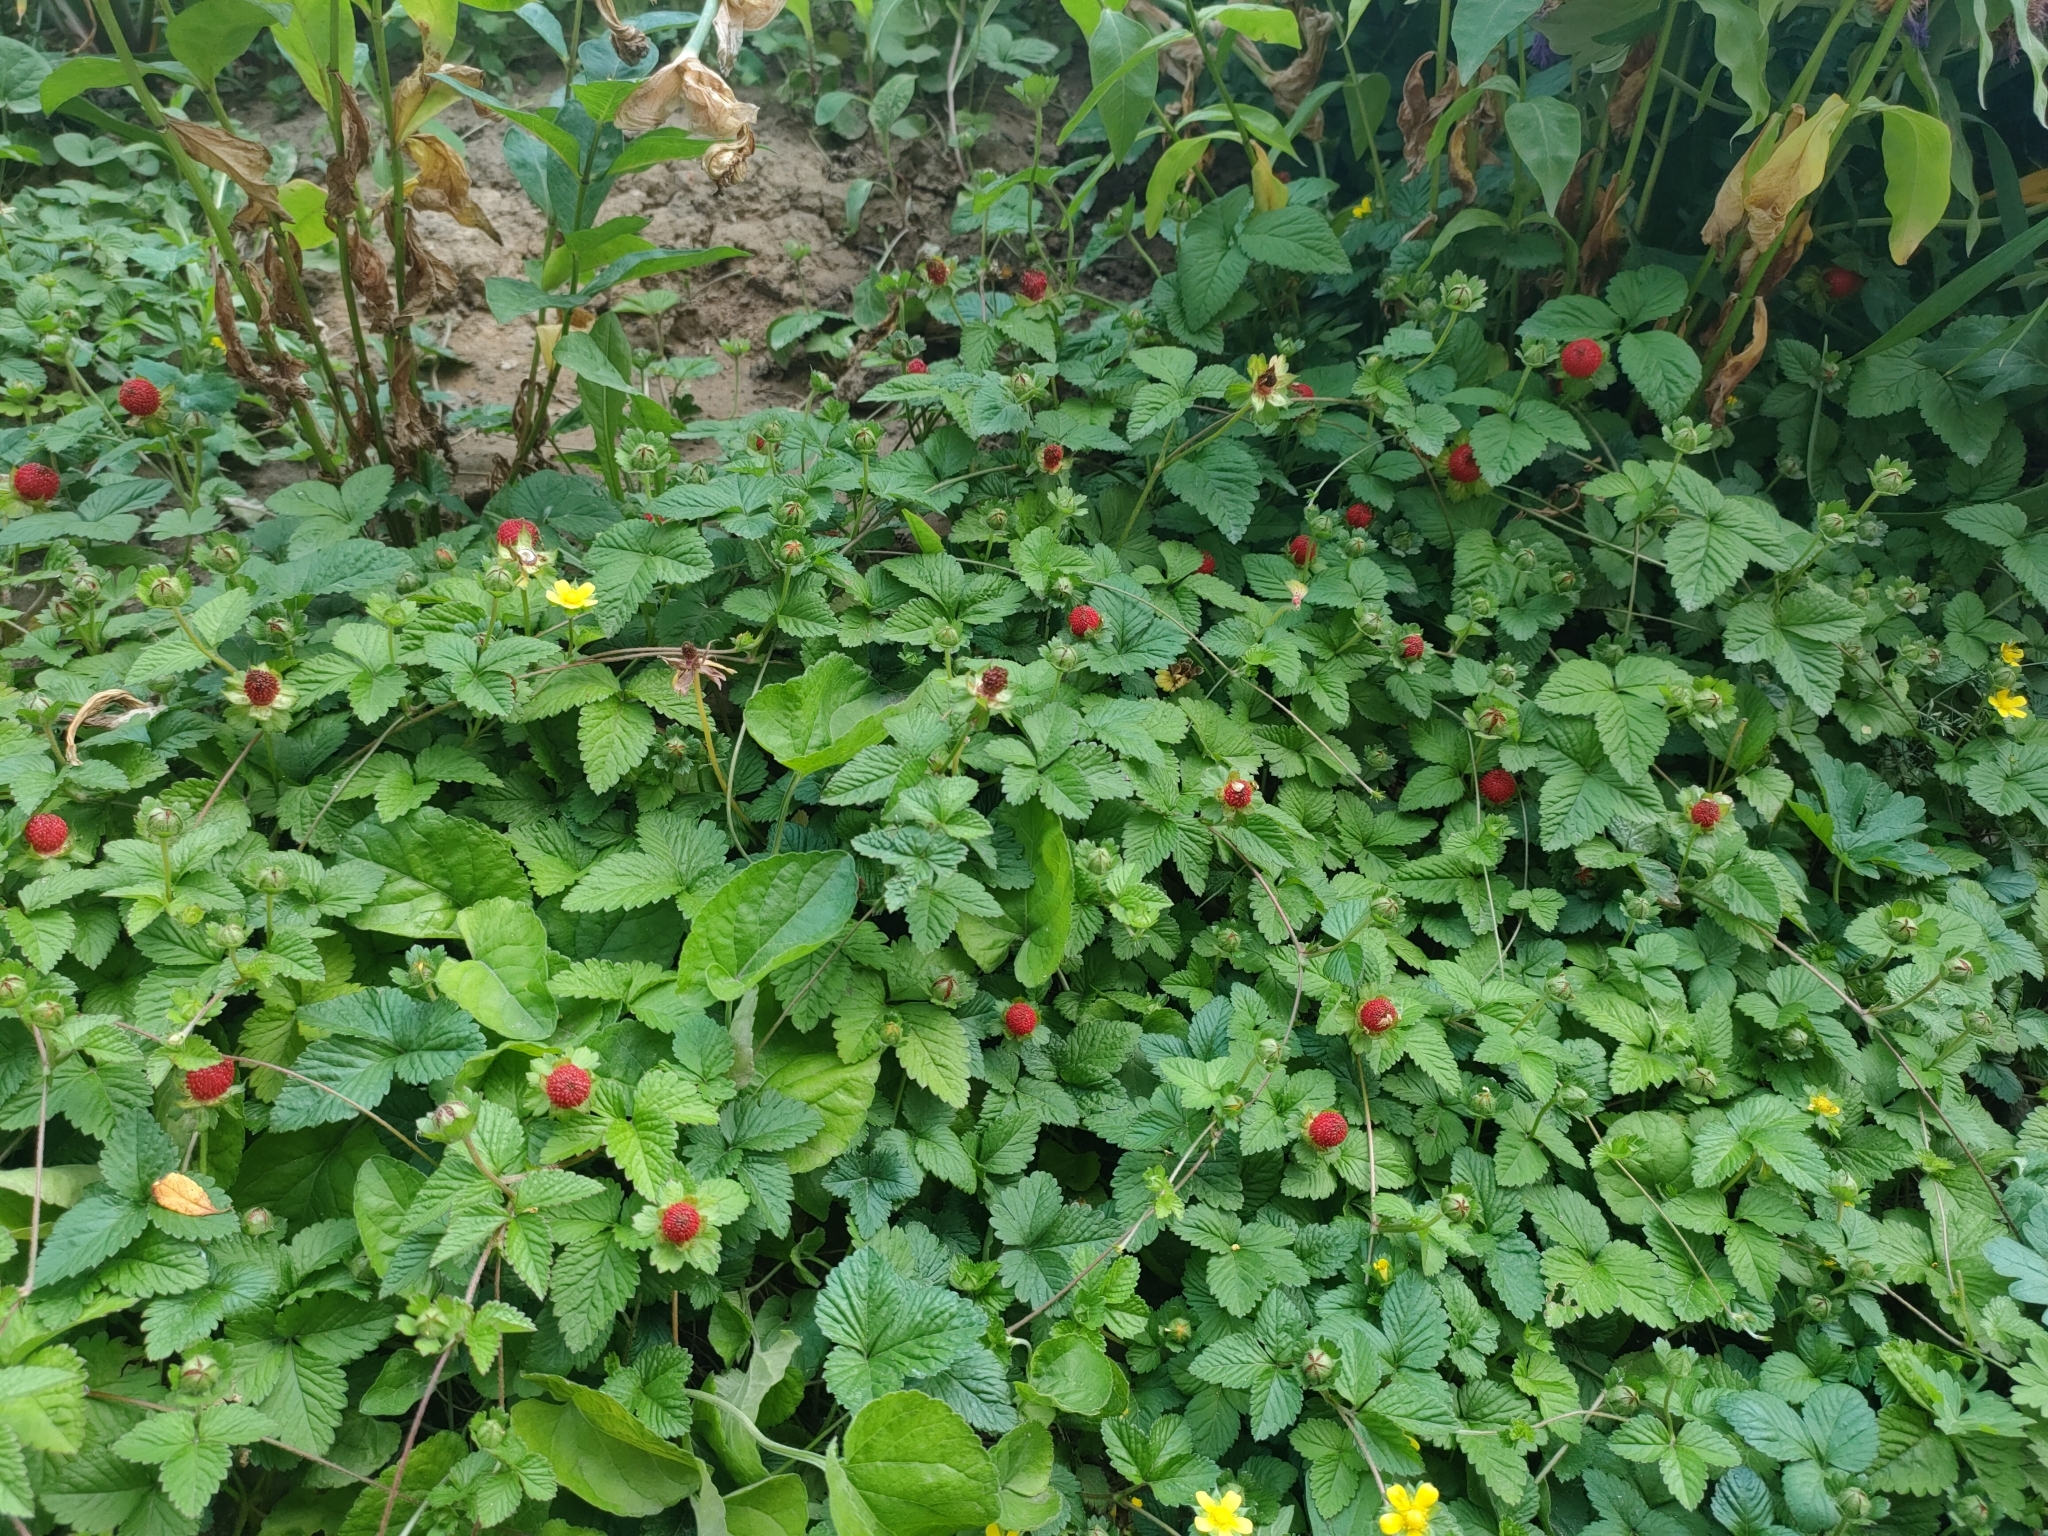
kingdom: Plantae
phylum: Tracheophyta
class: Magnoliopsida
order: Rosales
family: Rosaceae
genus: Potentilla
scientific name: Potentilla indica
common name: Yellow-flowered strawberry
